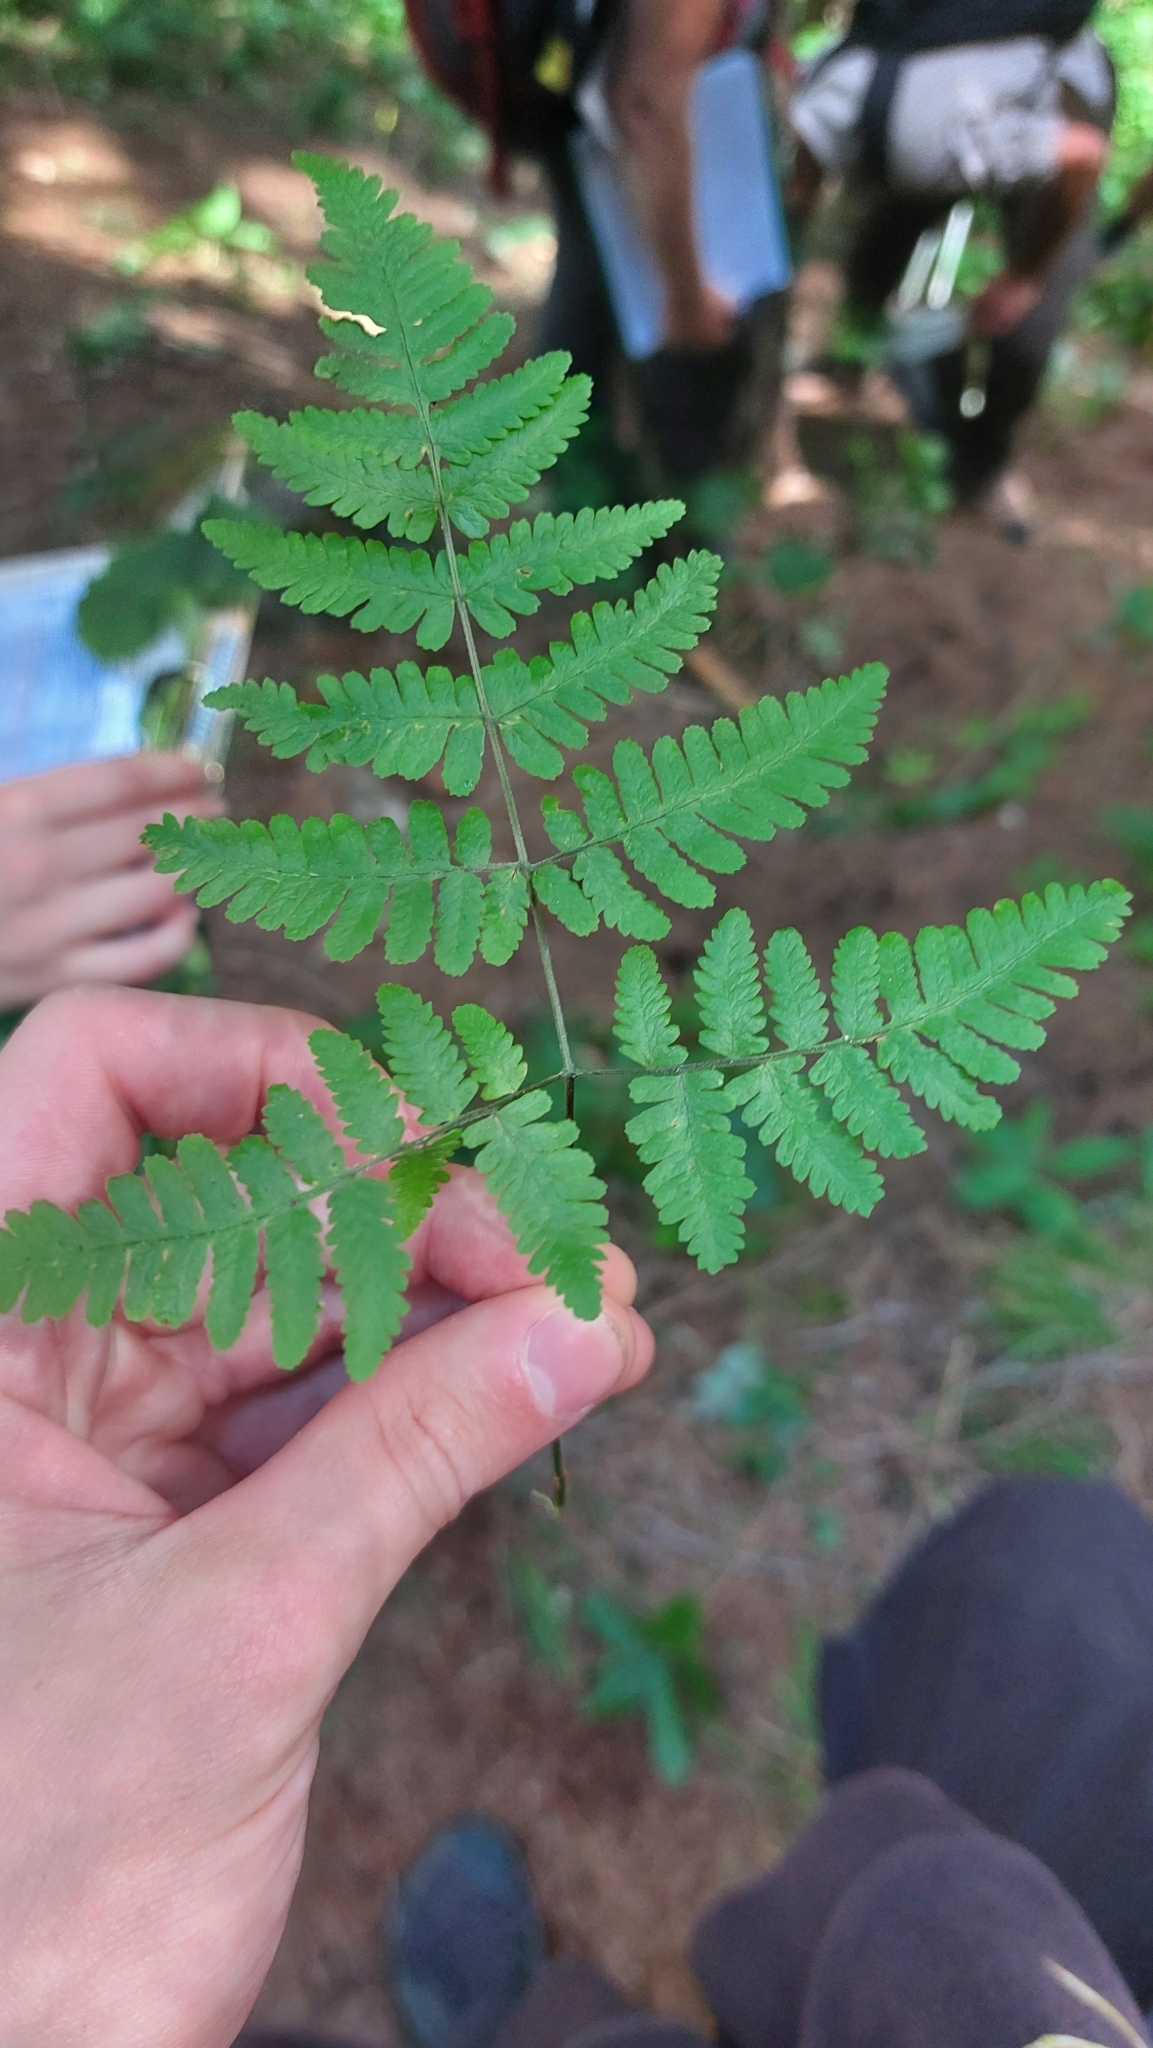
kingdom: Plantae
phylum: Tracheophyta
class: Polypodiopsida
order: Polypodiales
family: Cystopteridaceae
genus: Gymnocarpium
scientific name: Gymnocarpium robertianum
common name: Limestone fern
